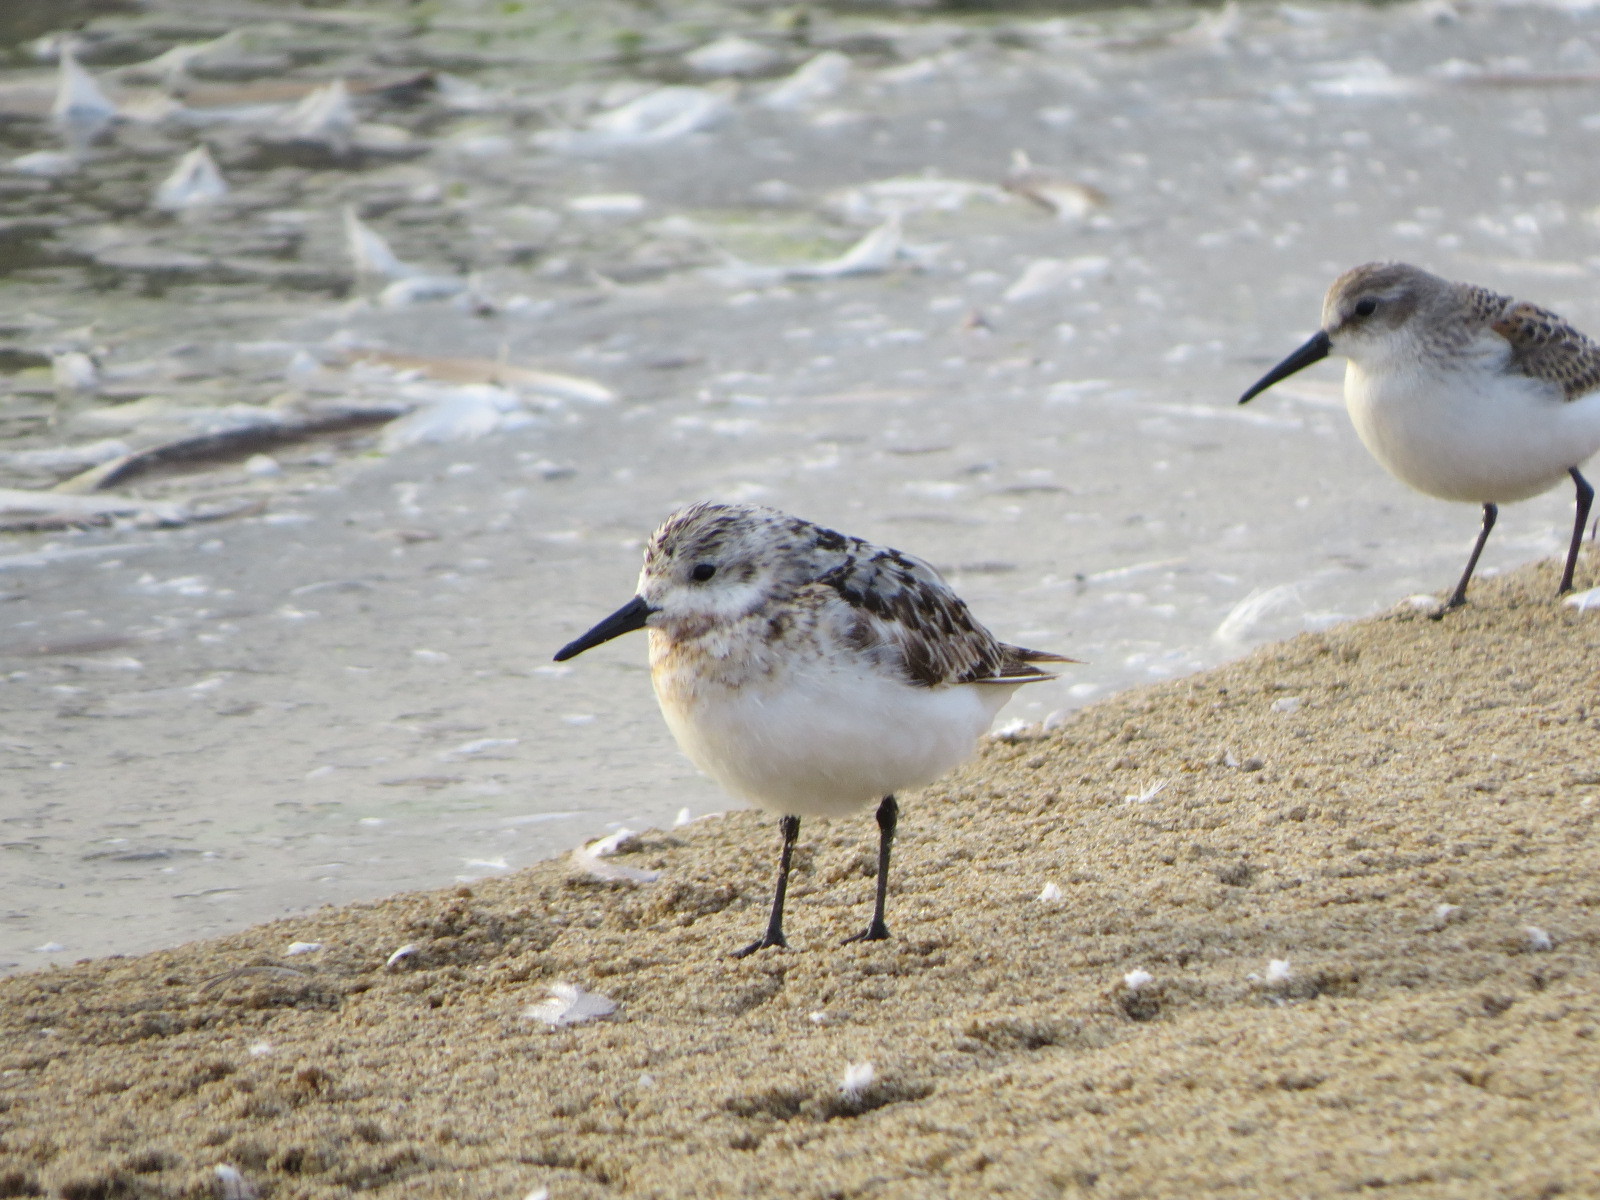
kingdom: Animalia
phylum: Chordata
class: Aves
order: Charadriiformes
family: Scolopacidae
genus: Calidris
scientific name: Calidris alba
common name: Sanderling
